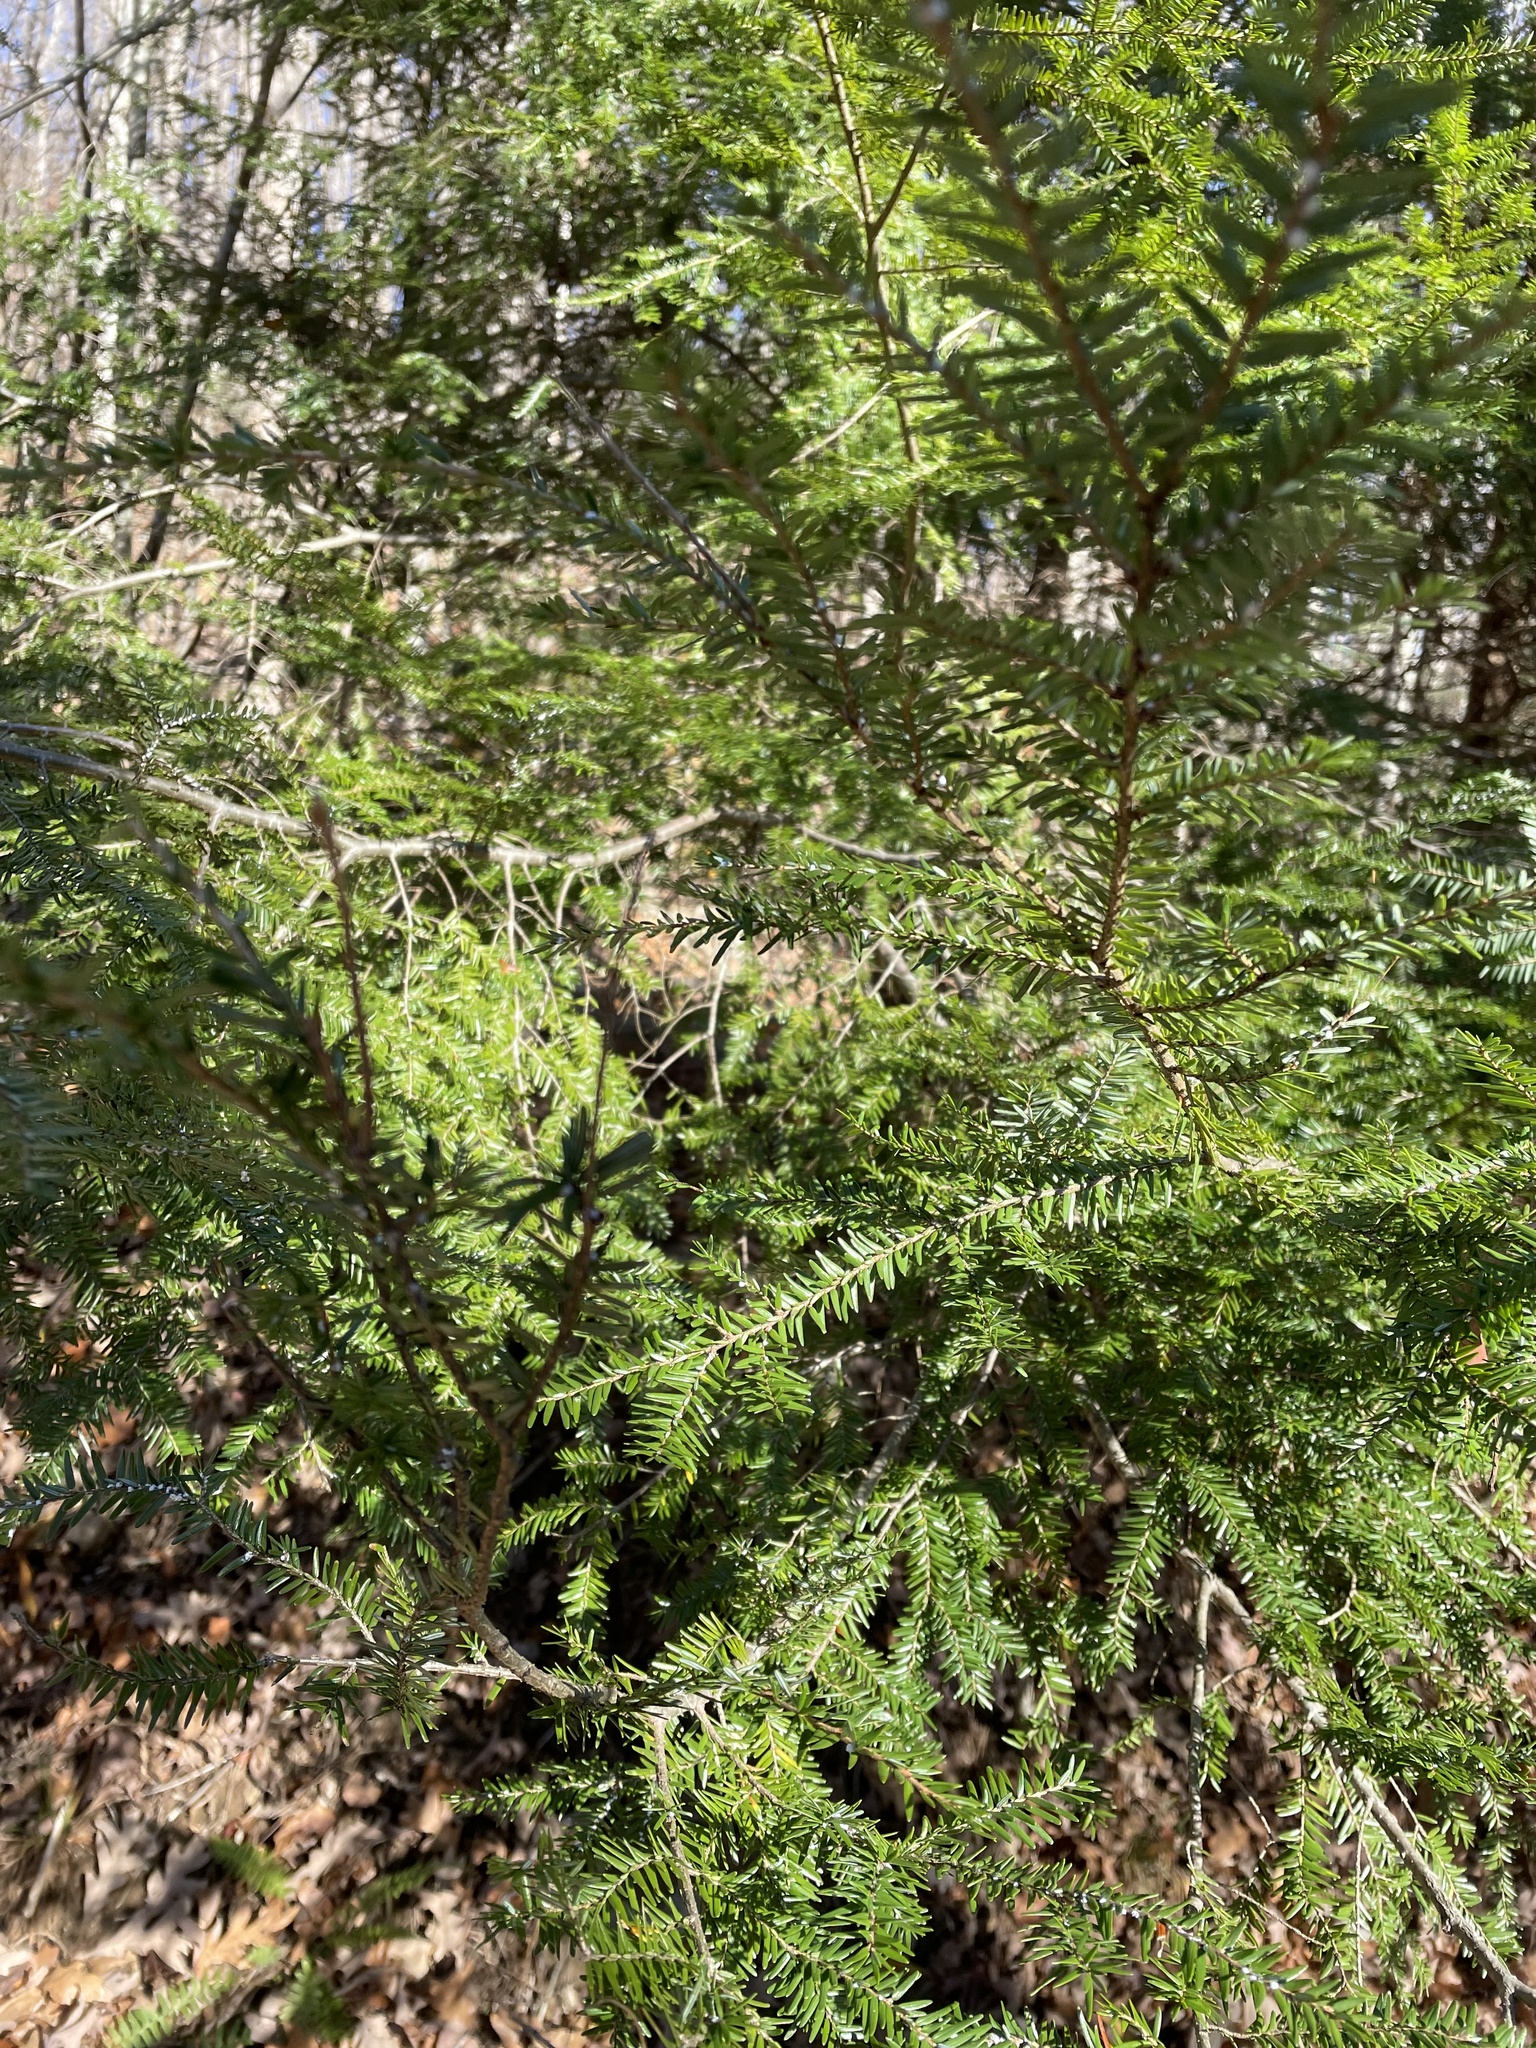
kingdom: Plantae
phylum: Tracheophyta
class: Pinopsida
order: Pinales
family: Pinaceae
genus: Tsuga
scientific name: Tsuga canadensis
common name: Eastern hemlock
